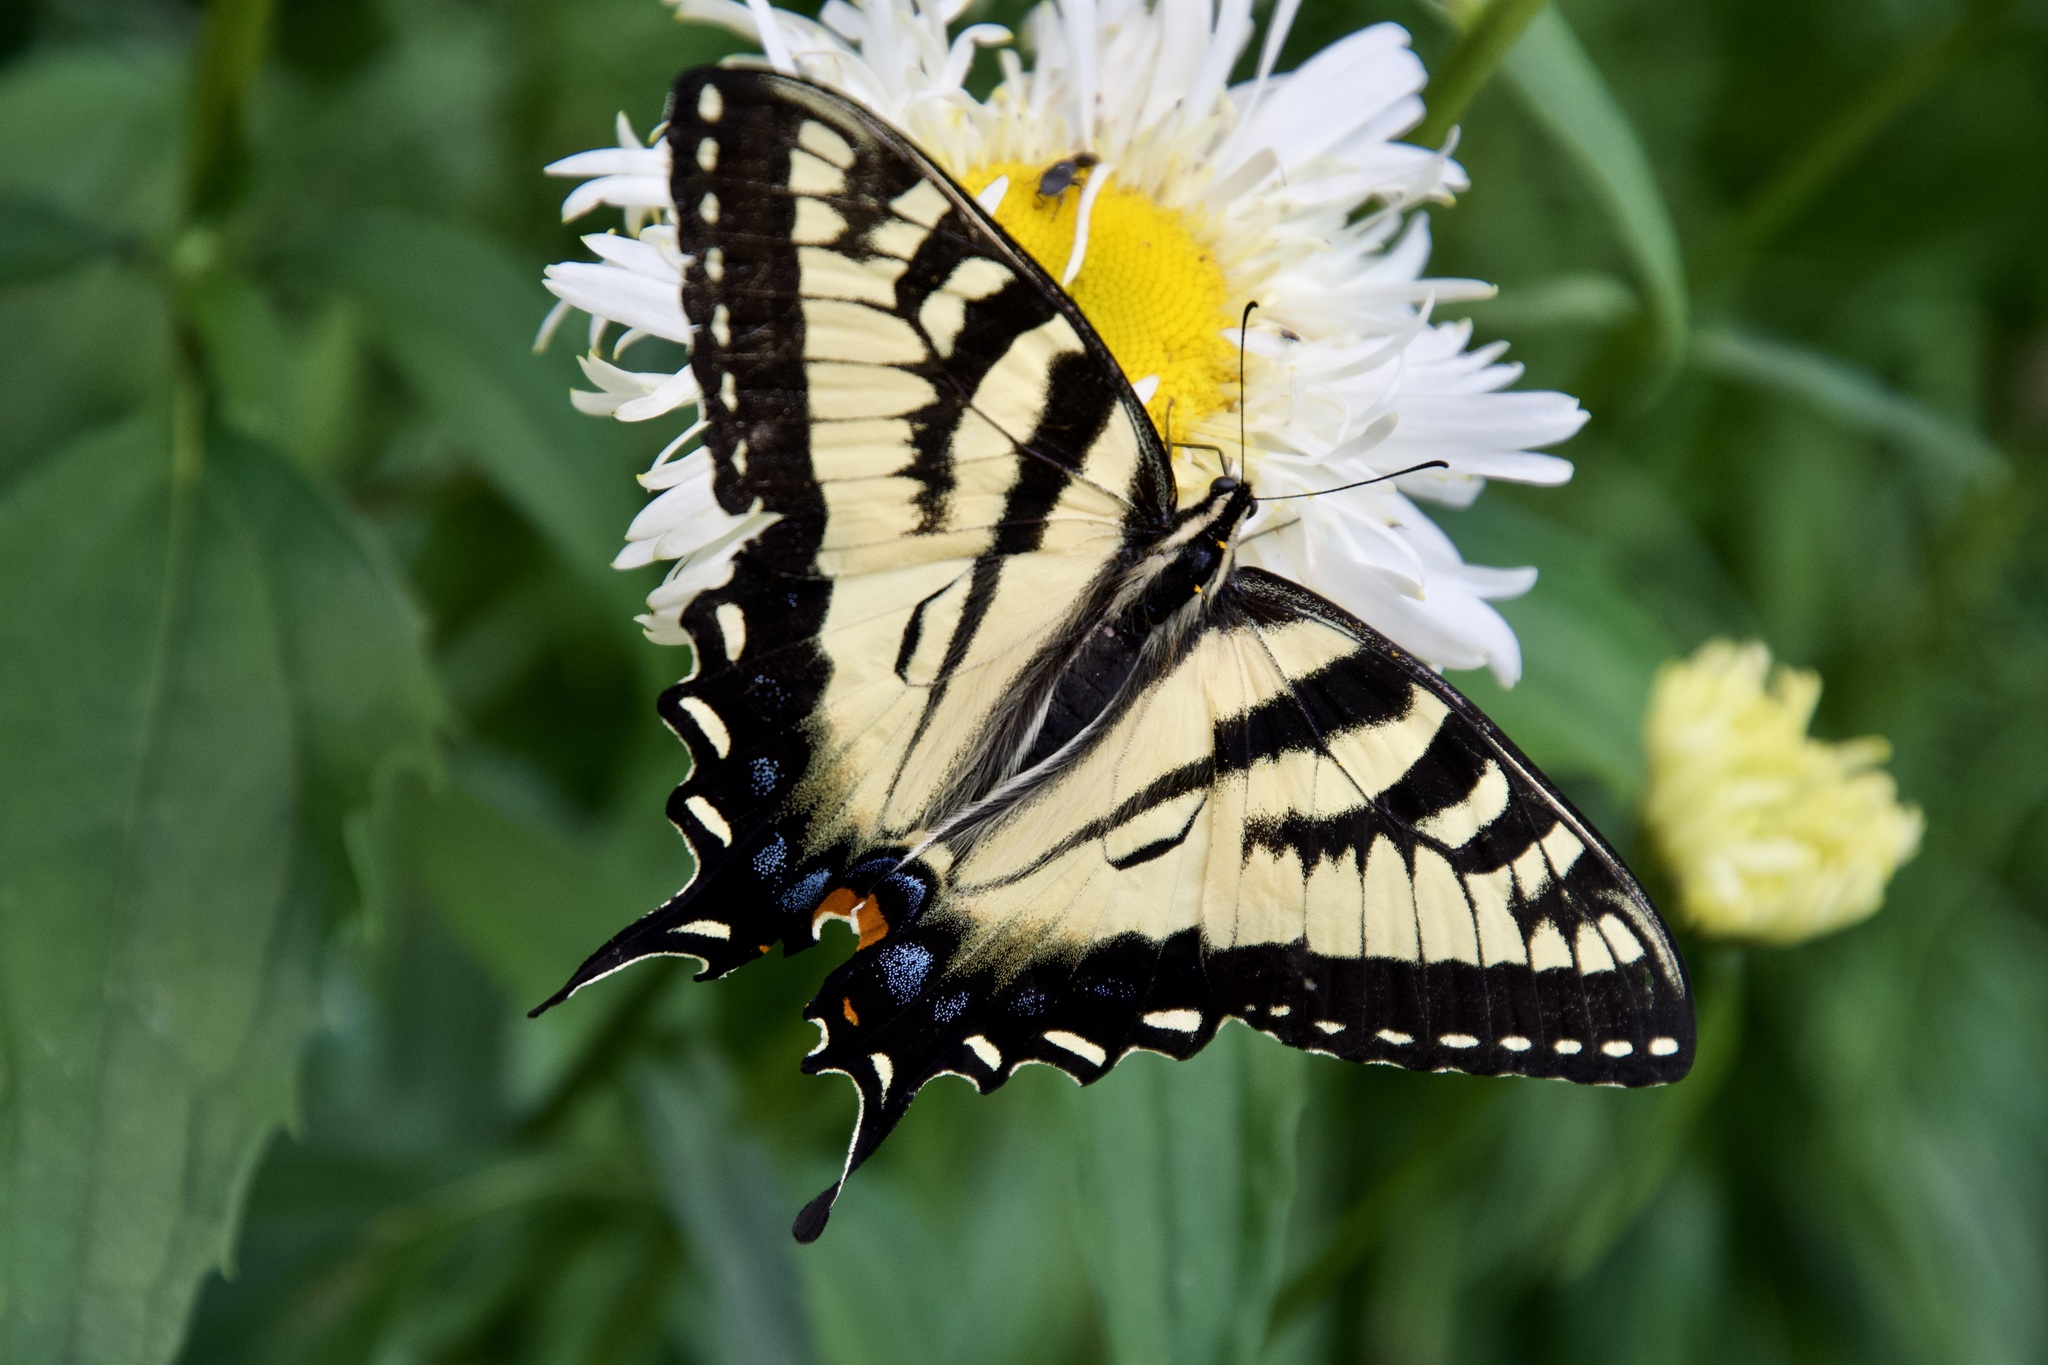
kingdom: Animalia
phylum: Arthropoda
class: Insecta
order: Lepidoptera
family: Papilionidae
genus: Papilio
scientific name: Papilio
